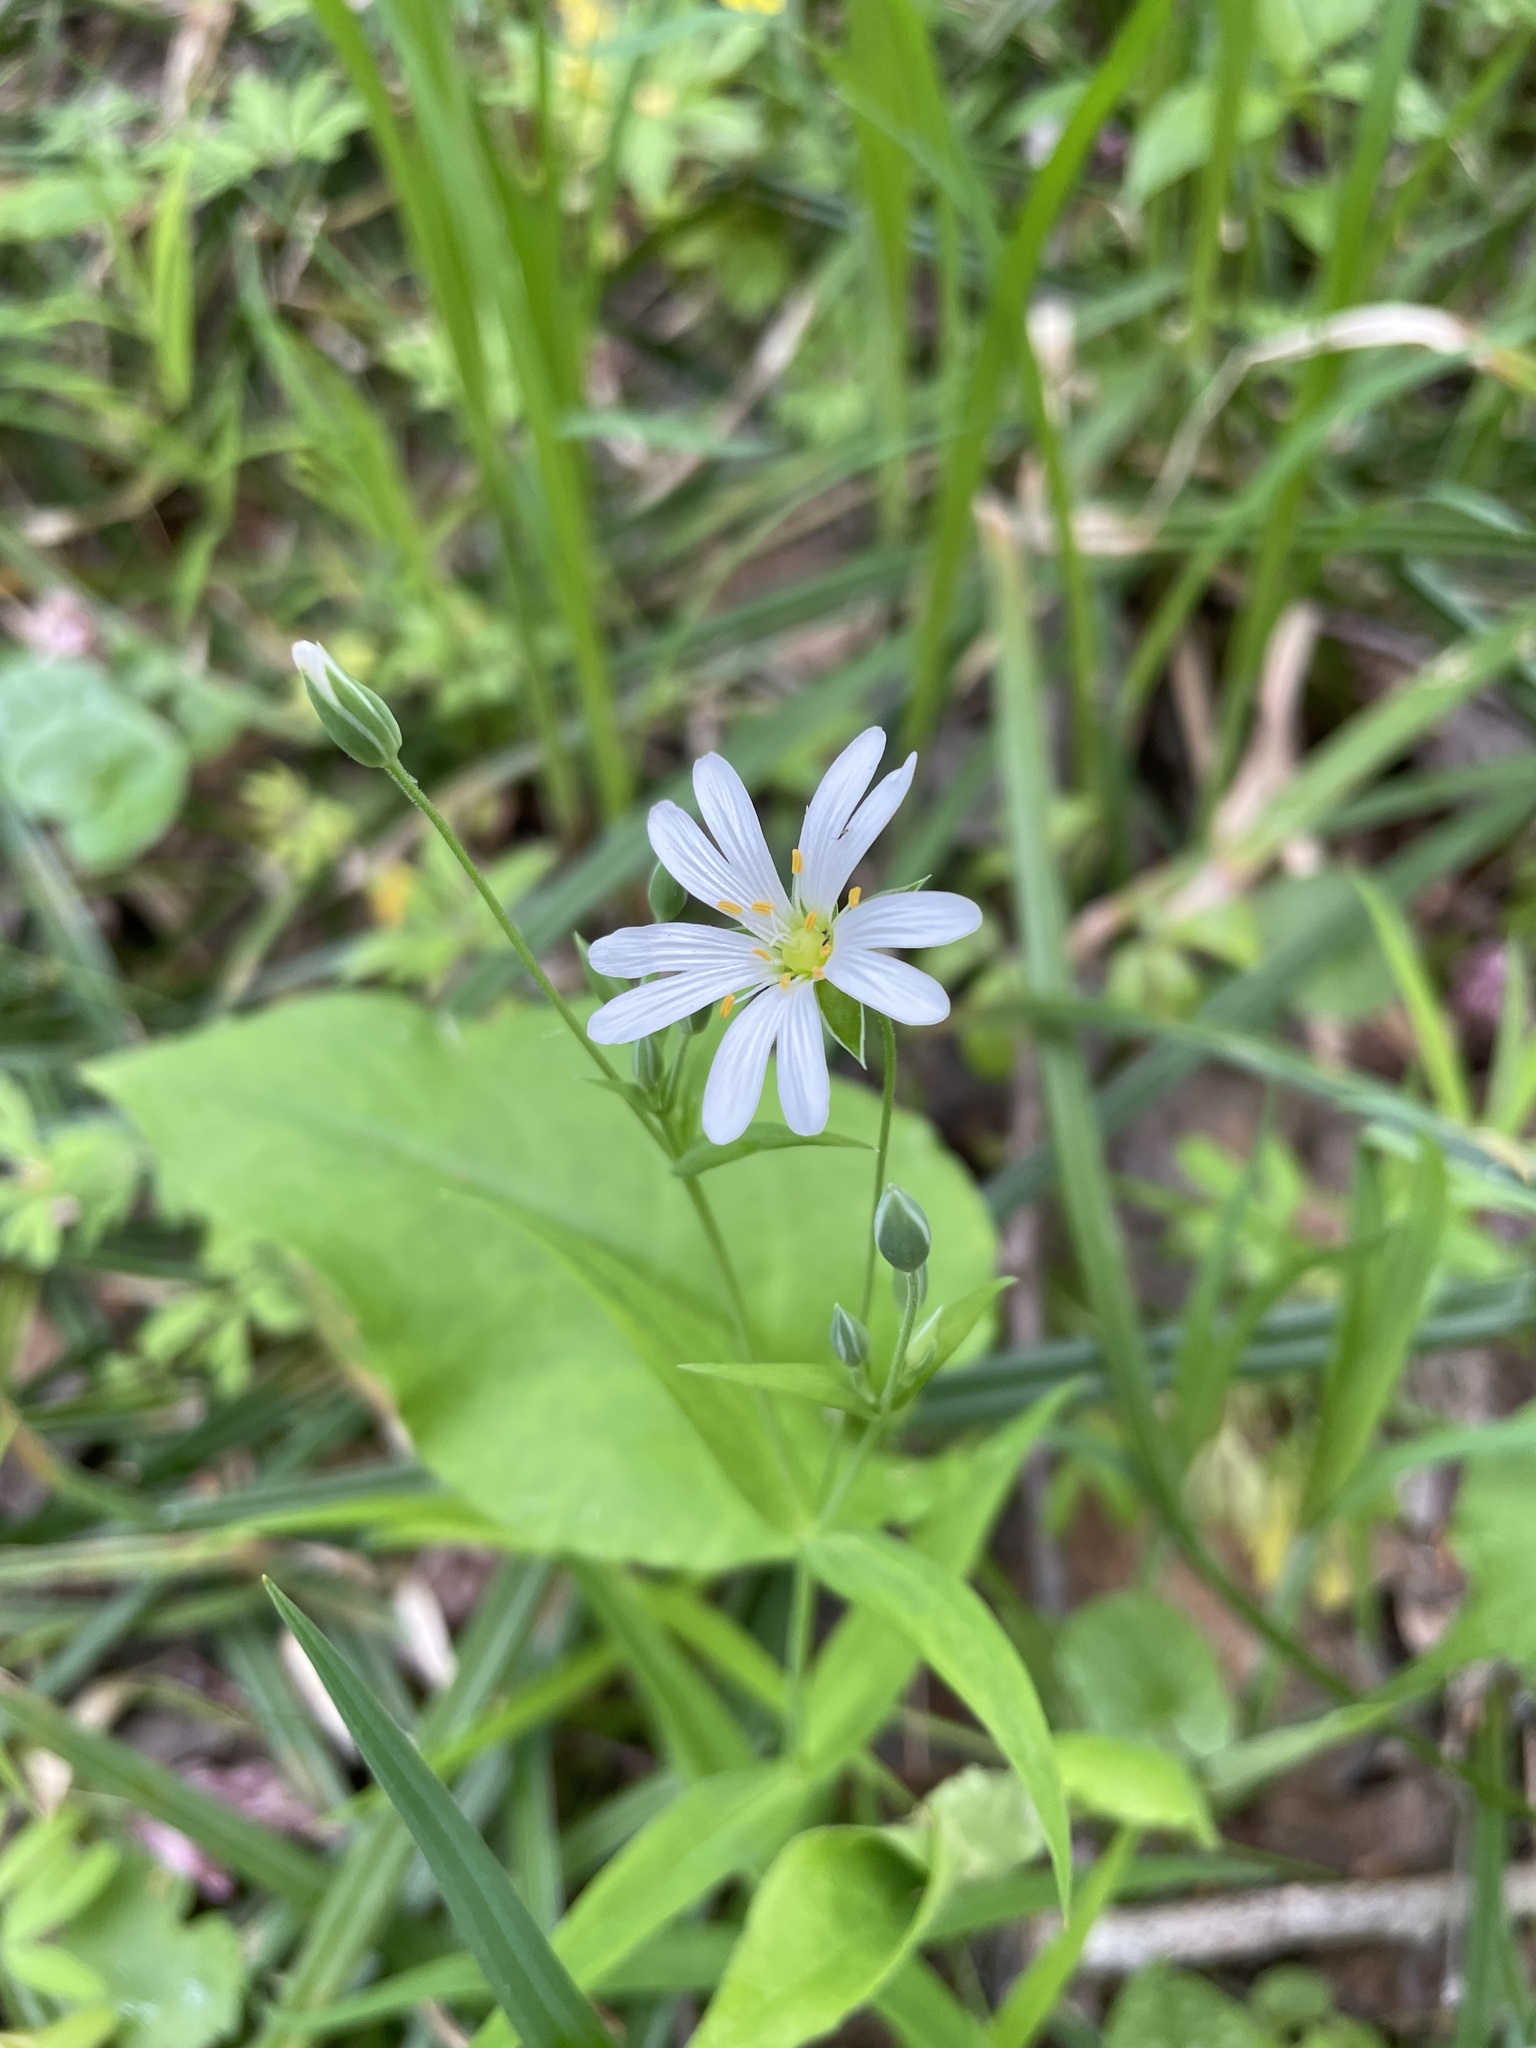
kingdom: Plantae
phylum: Tracheophyta
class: Magnoliopsida
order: Caryophyllales
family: Caryophyllaceae
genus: Rabelera
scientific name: Rabelera holostea
